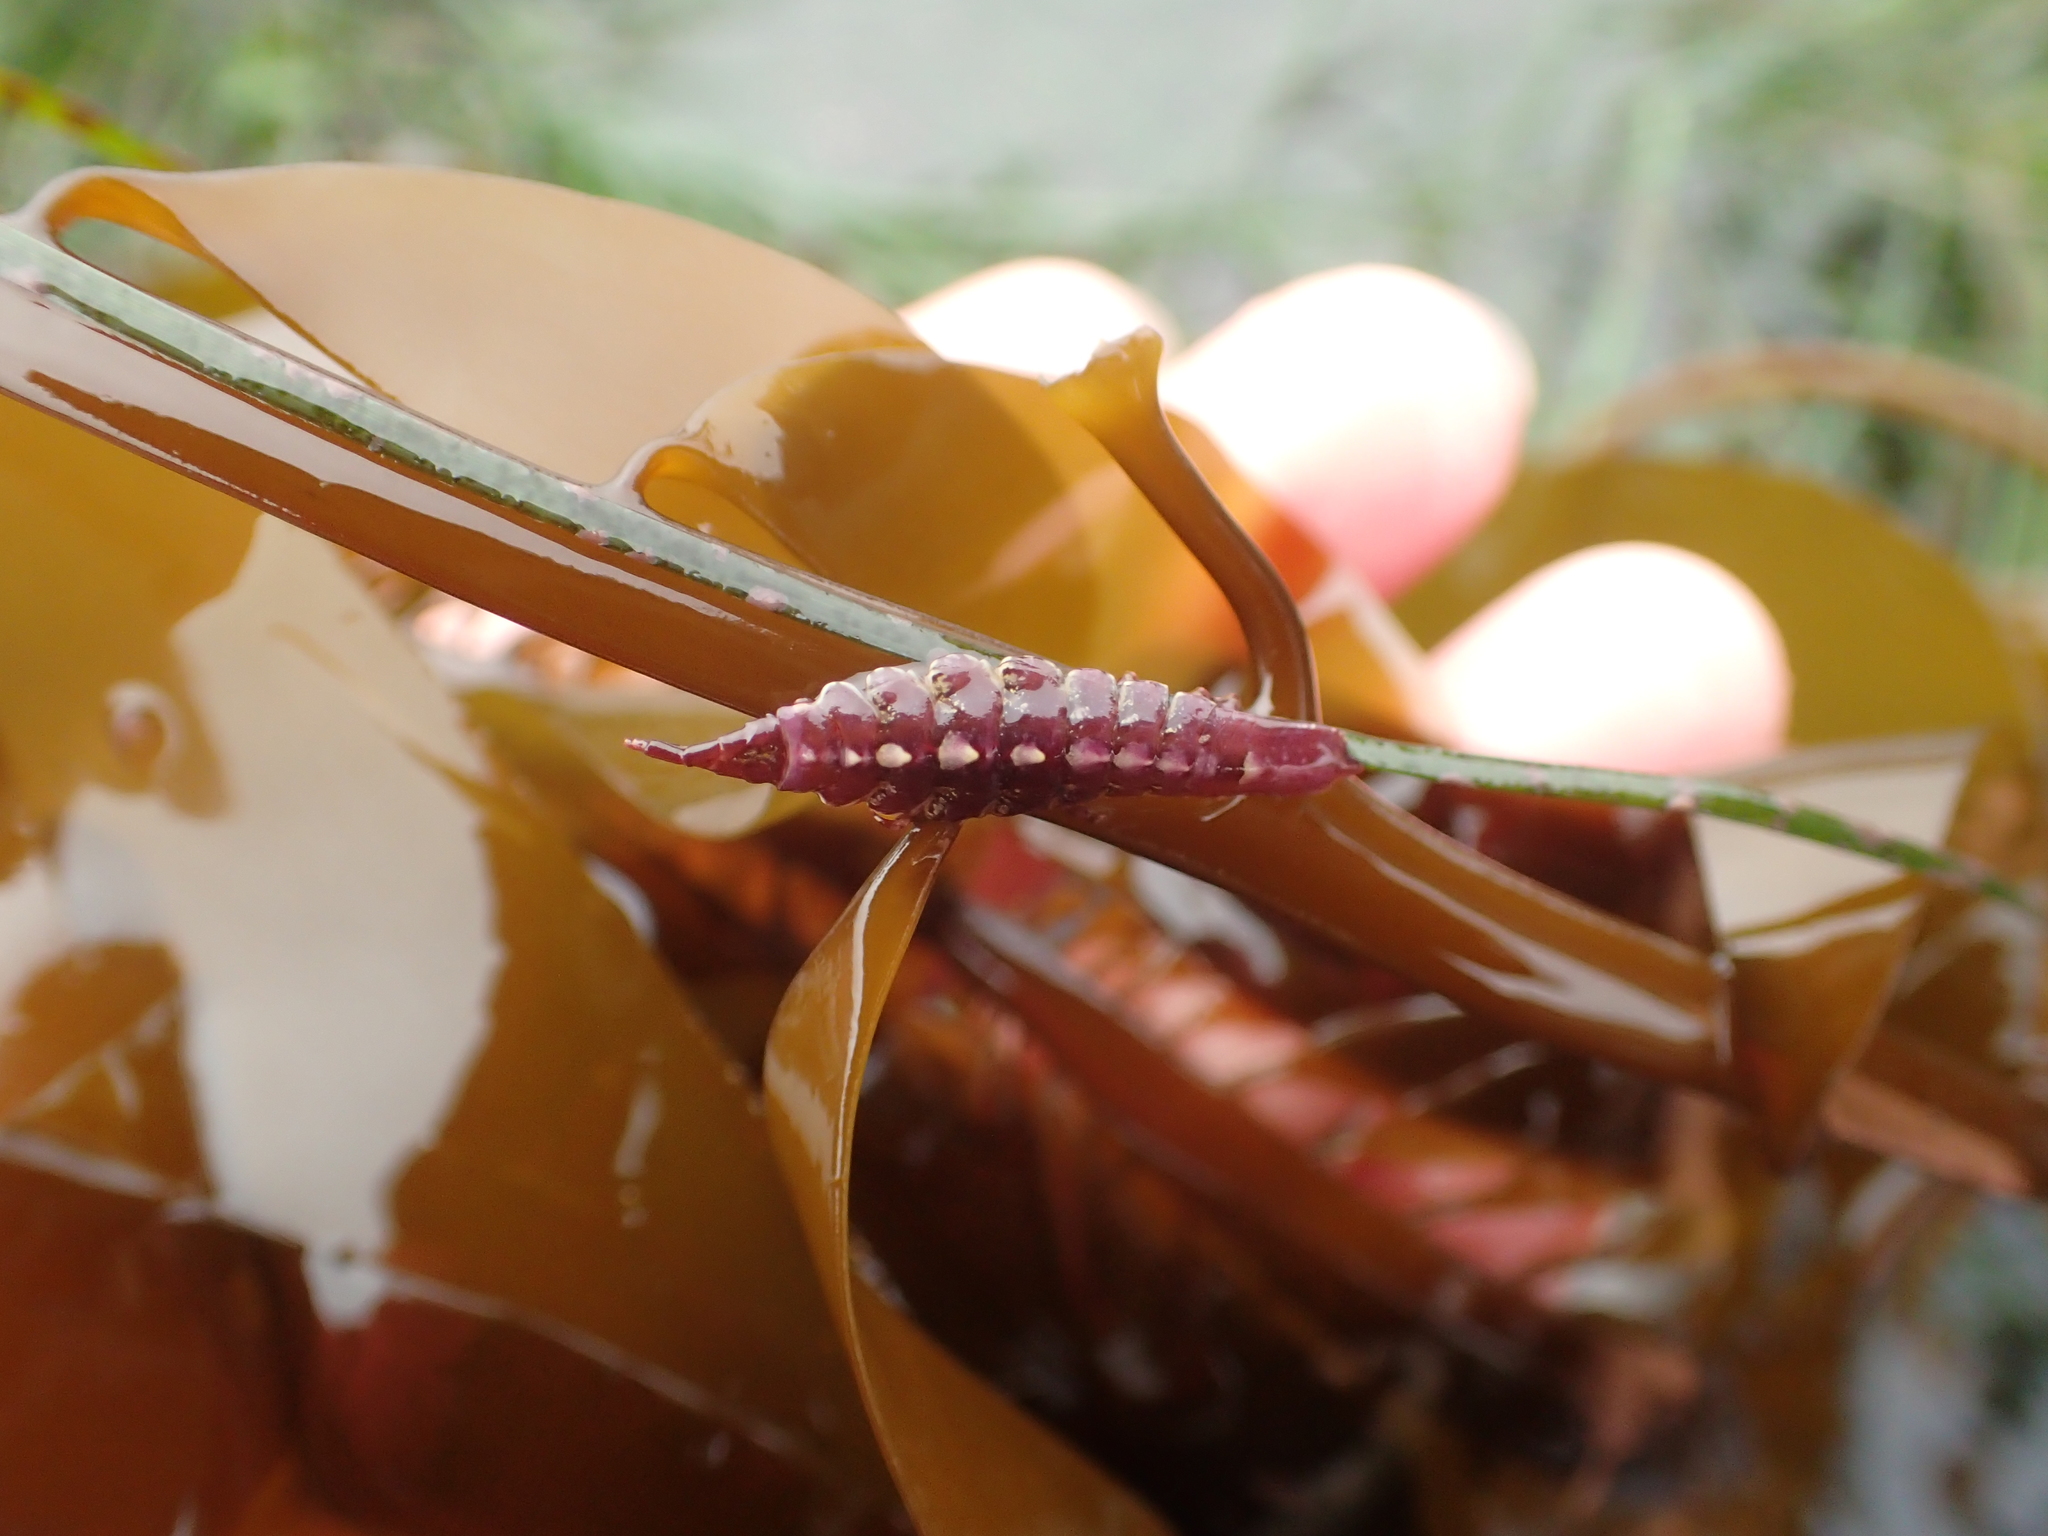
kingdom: Animalia
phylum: Arthropoda
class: Malacostraca
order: Isopoda
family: Idoteidae
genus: Pentidotea
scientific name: Pentidotea aculeata
